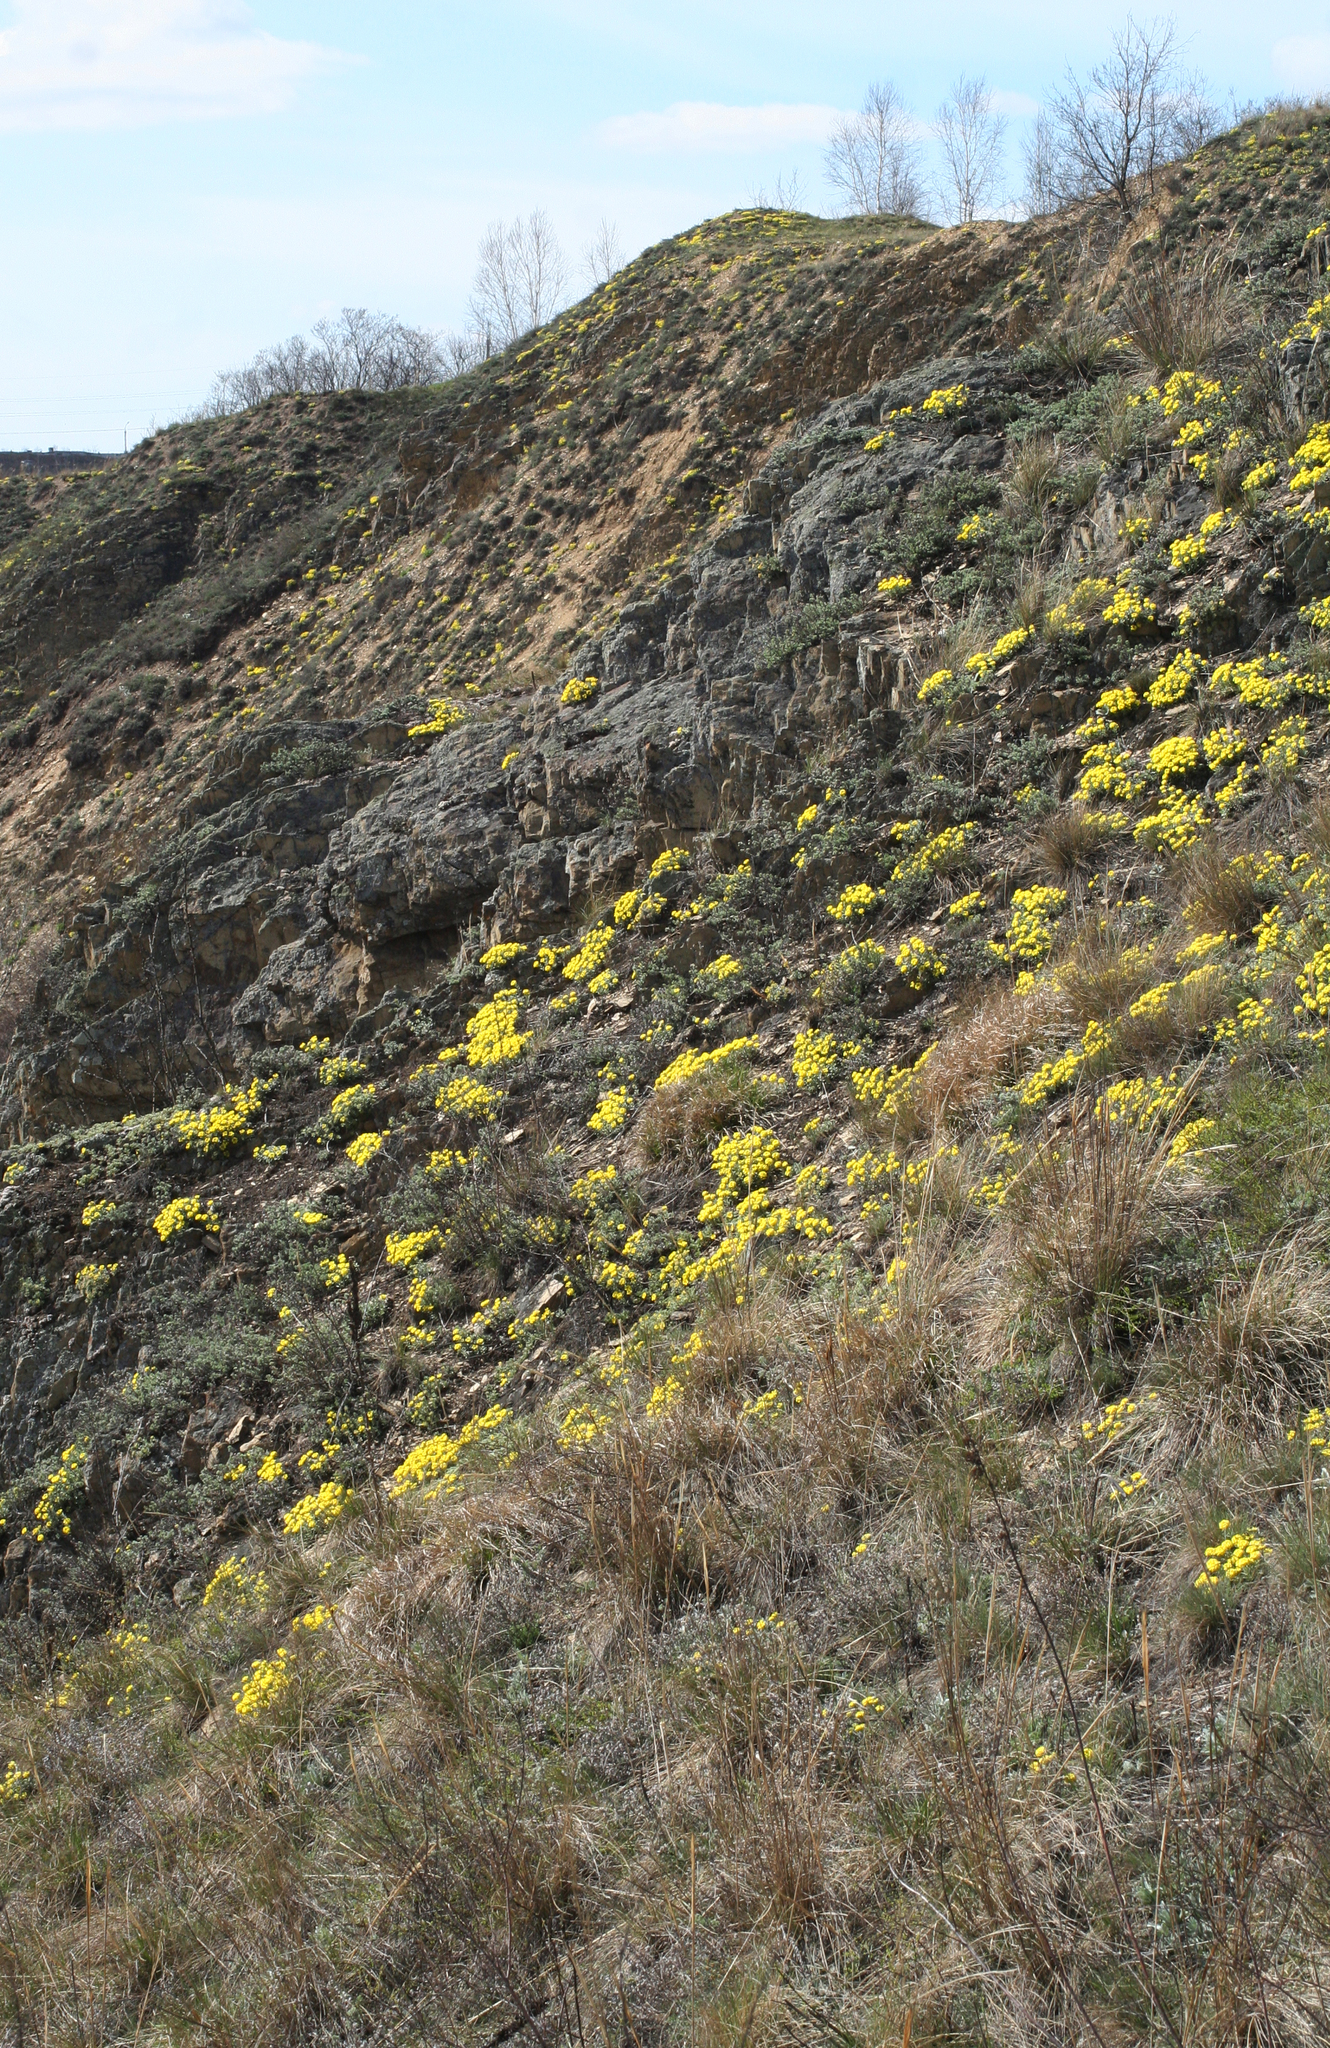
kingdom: Plantae
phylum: Tracheophyta
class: Magnoliopsida
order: Brassicales
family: Brassicaceae
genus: Alyssum
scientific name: Alyssum lenense
